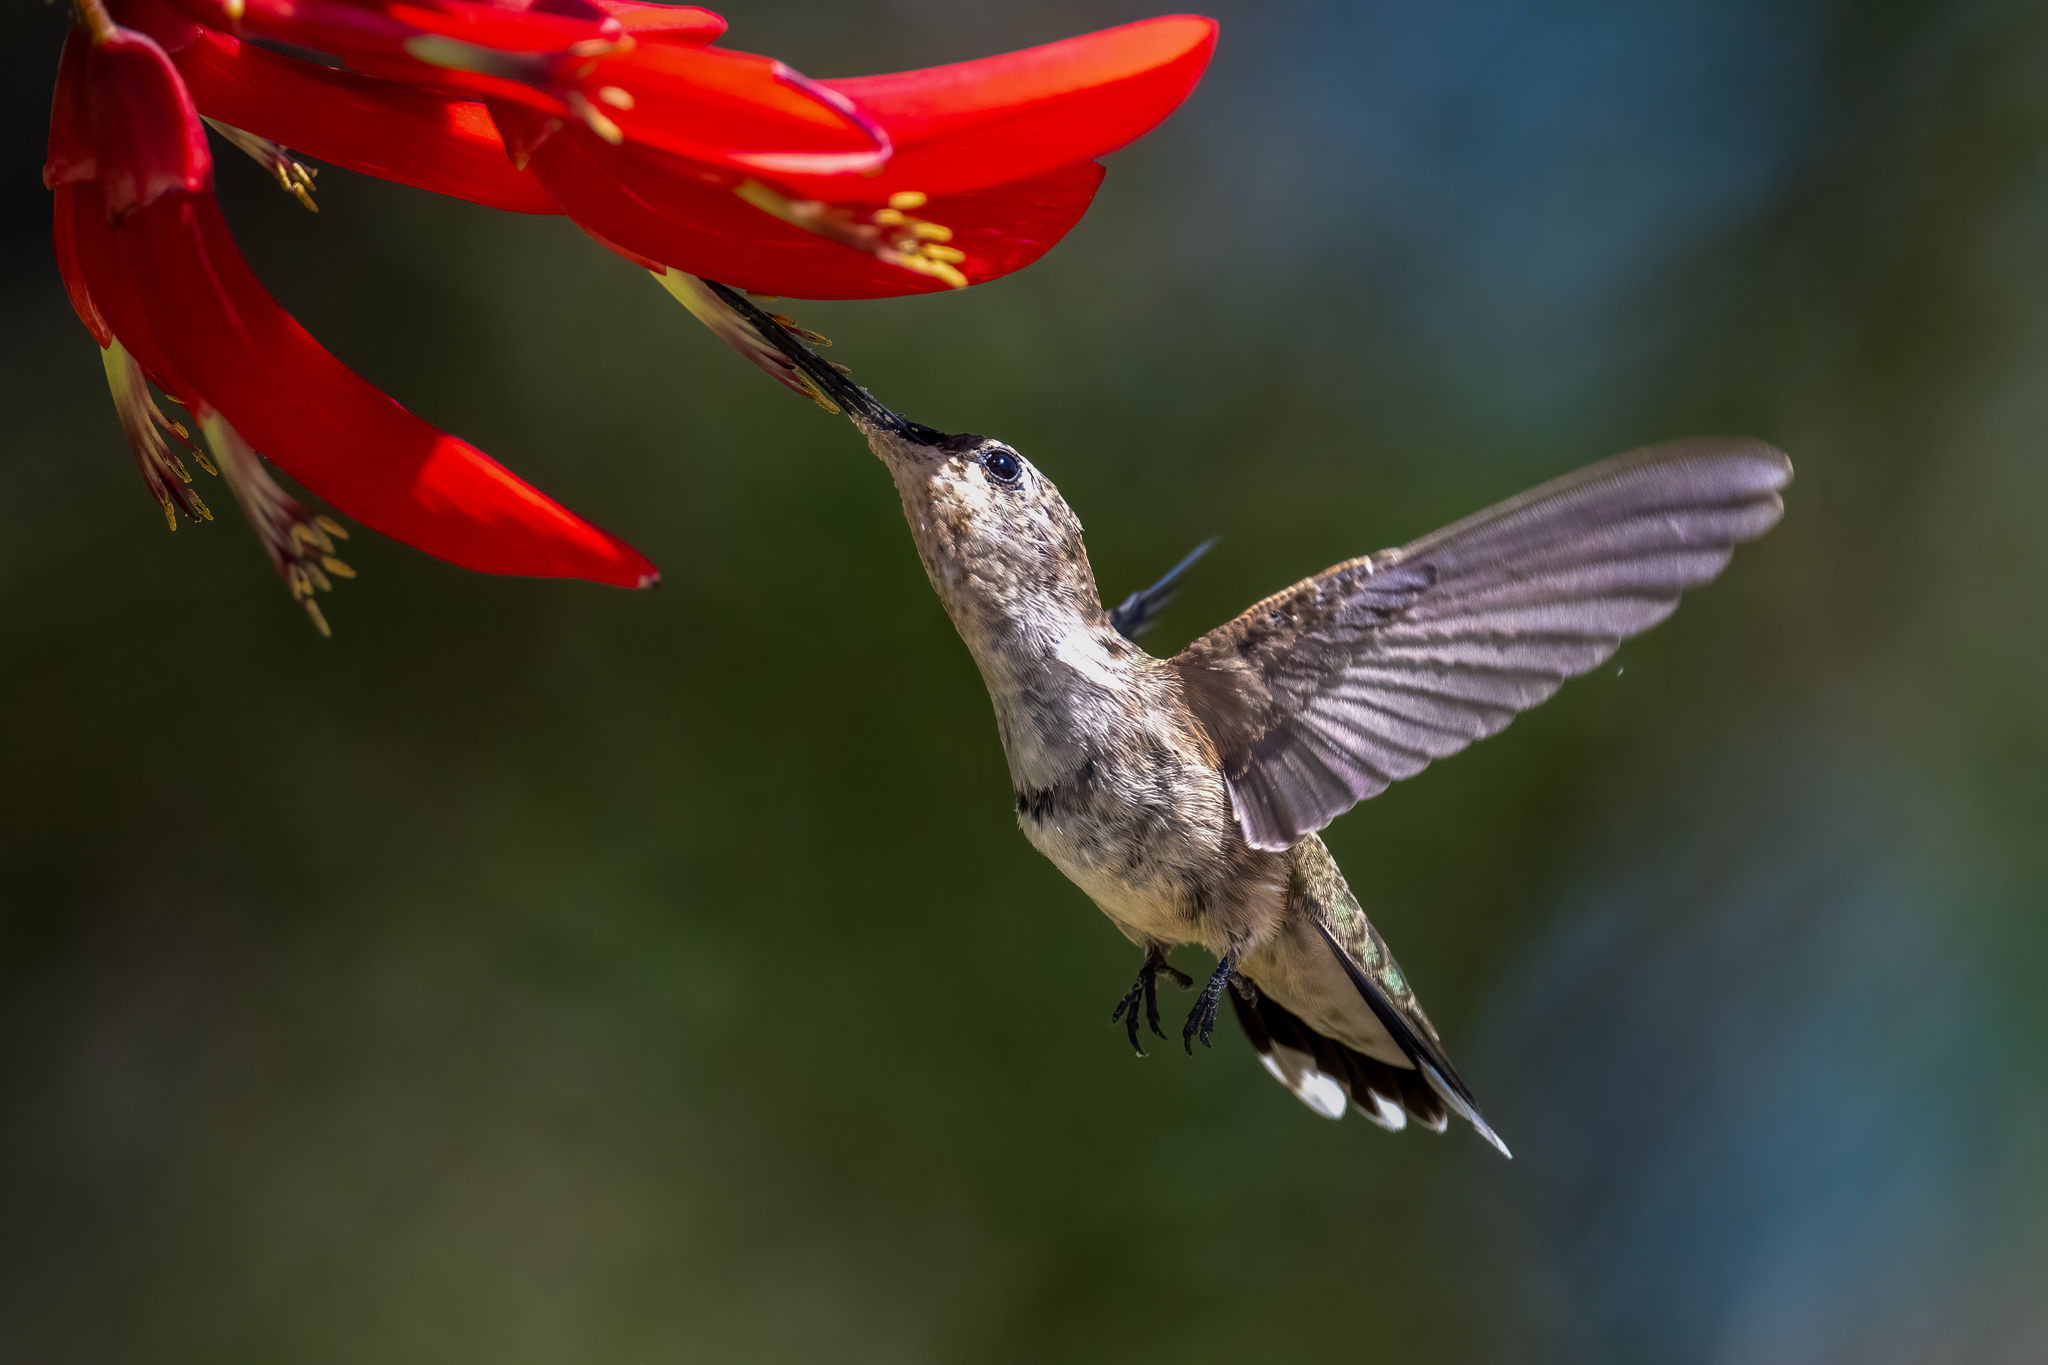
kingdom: Animalia
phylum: Chordata
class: Aves
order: Apodiformes
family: Trochilidae
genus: Archilochus
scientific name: Archilochus alexandri
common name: Black-chinned hummingbird
